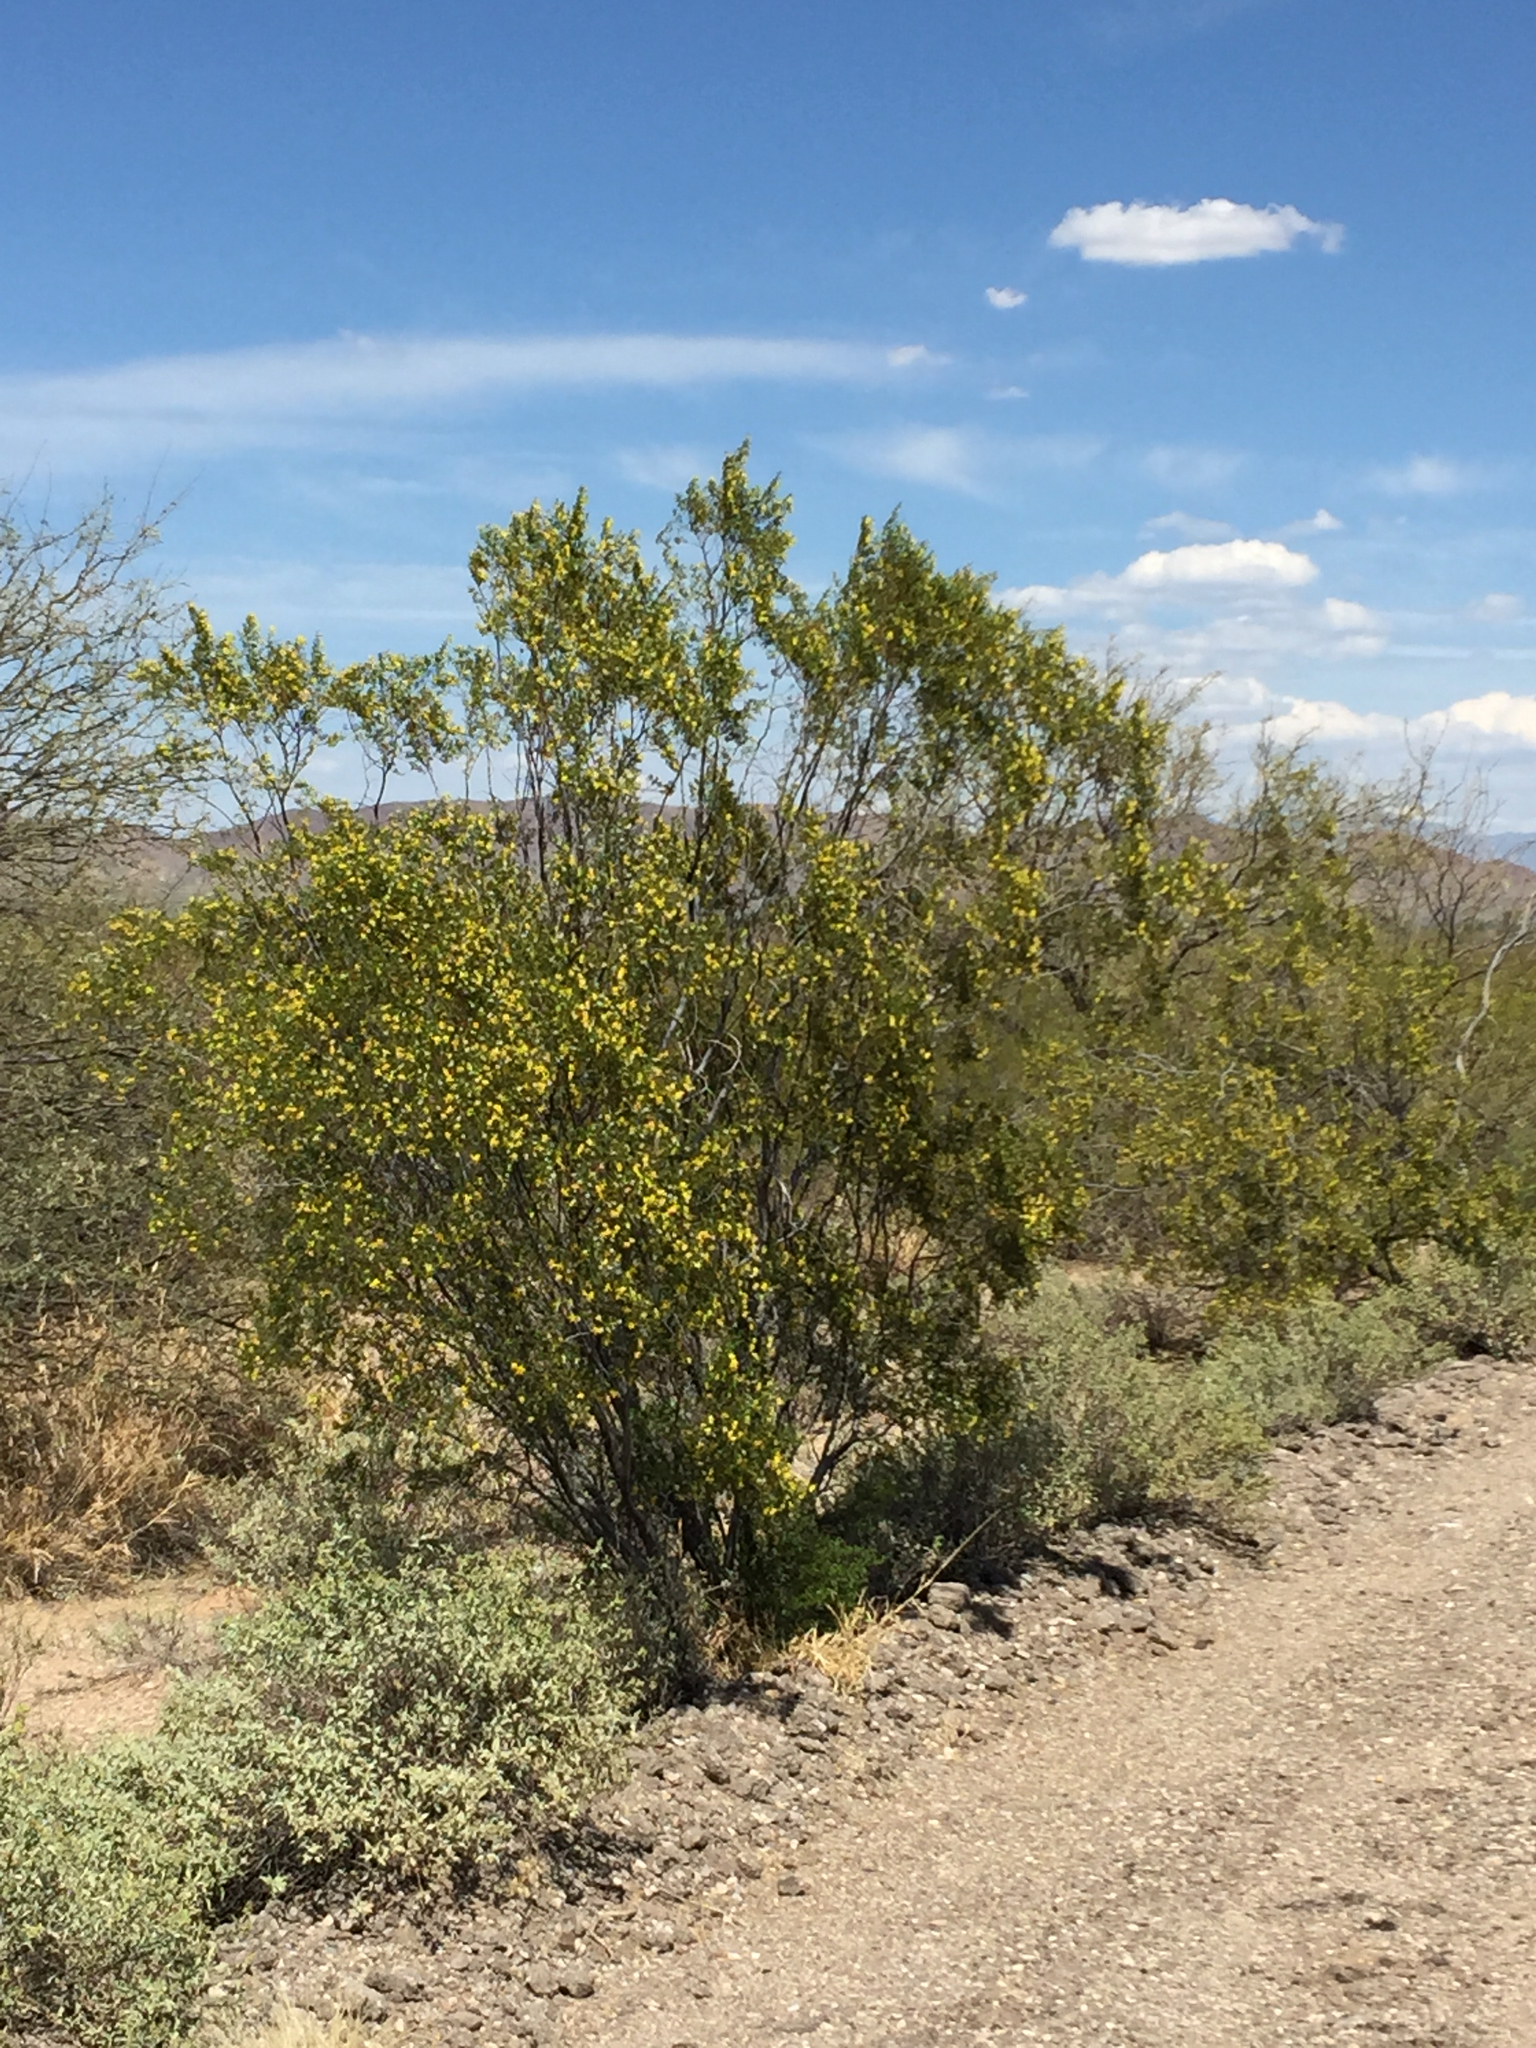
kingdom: Plantae
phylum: Tracheophyta
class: Magnoliopsida
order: Zygophyllales
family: Zygophyllaceae
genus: Larrea
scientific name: Larrea tridentata
